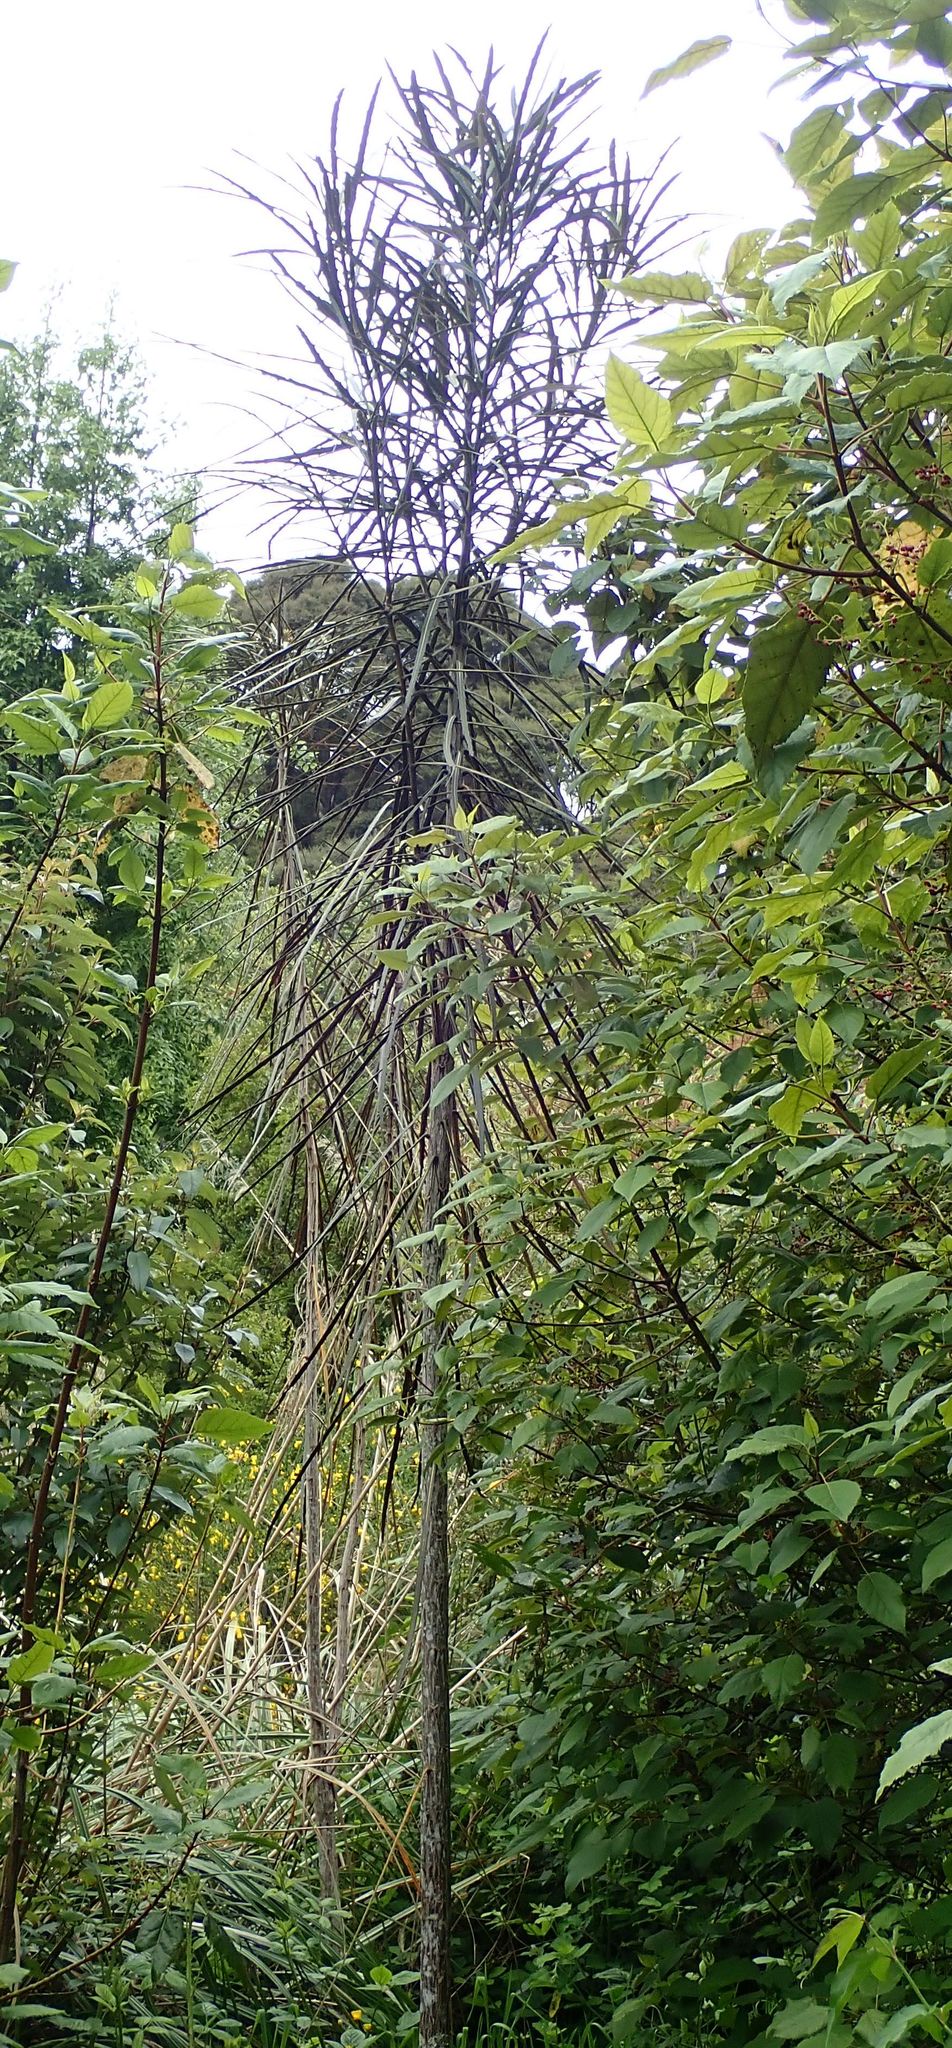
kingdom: Plantae
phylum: Tracheophyta
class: Magnoliopsida
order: Apiales
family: Araliaceae
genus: Pseudopanax
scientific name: Pseudopanax crassifolius
